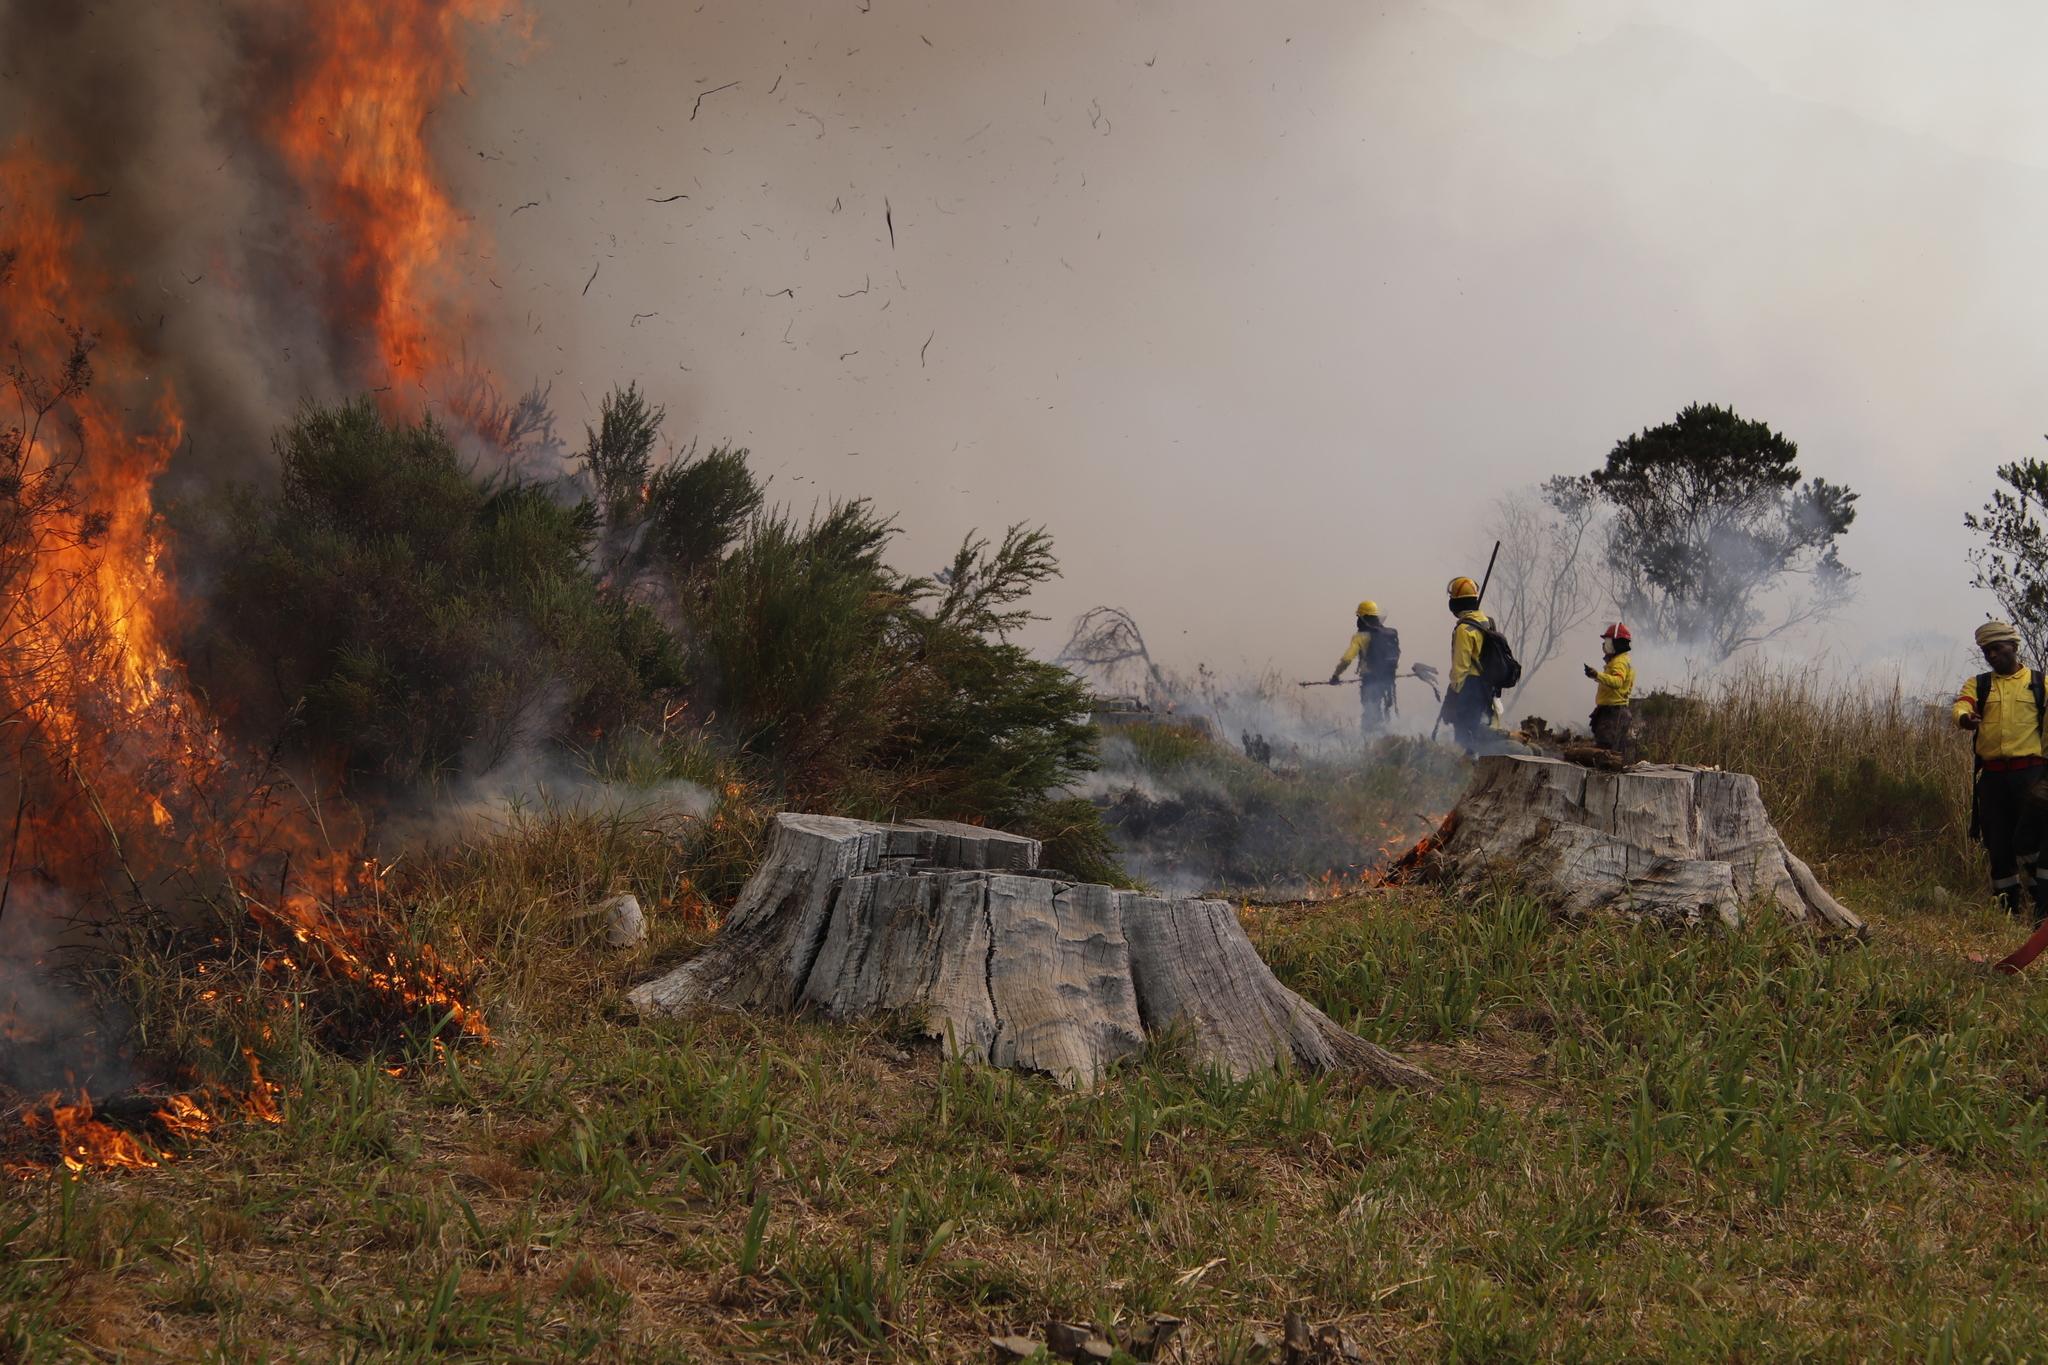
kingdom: Plantae
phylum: Tracheophyta
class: Magnoliopsida
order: Rosales
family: Rosaceae
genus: Cliffortia
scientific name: Cliffortia strobilifera
